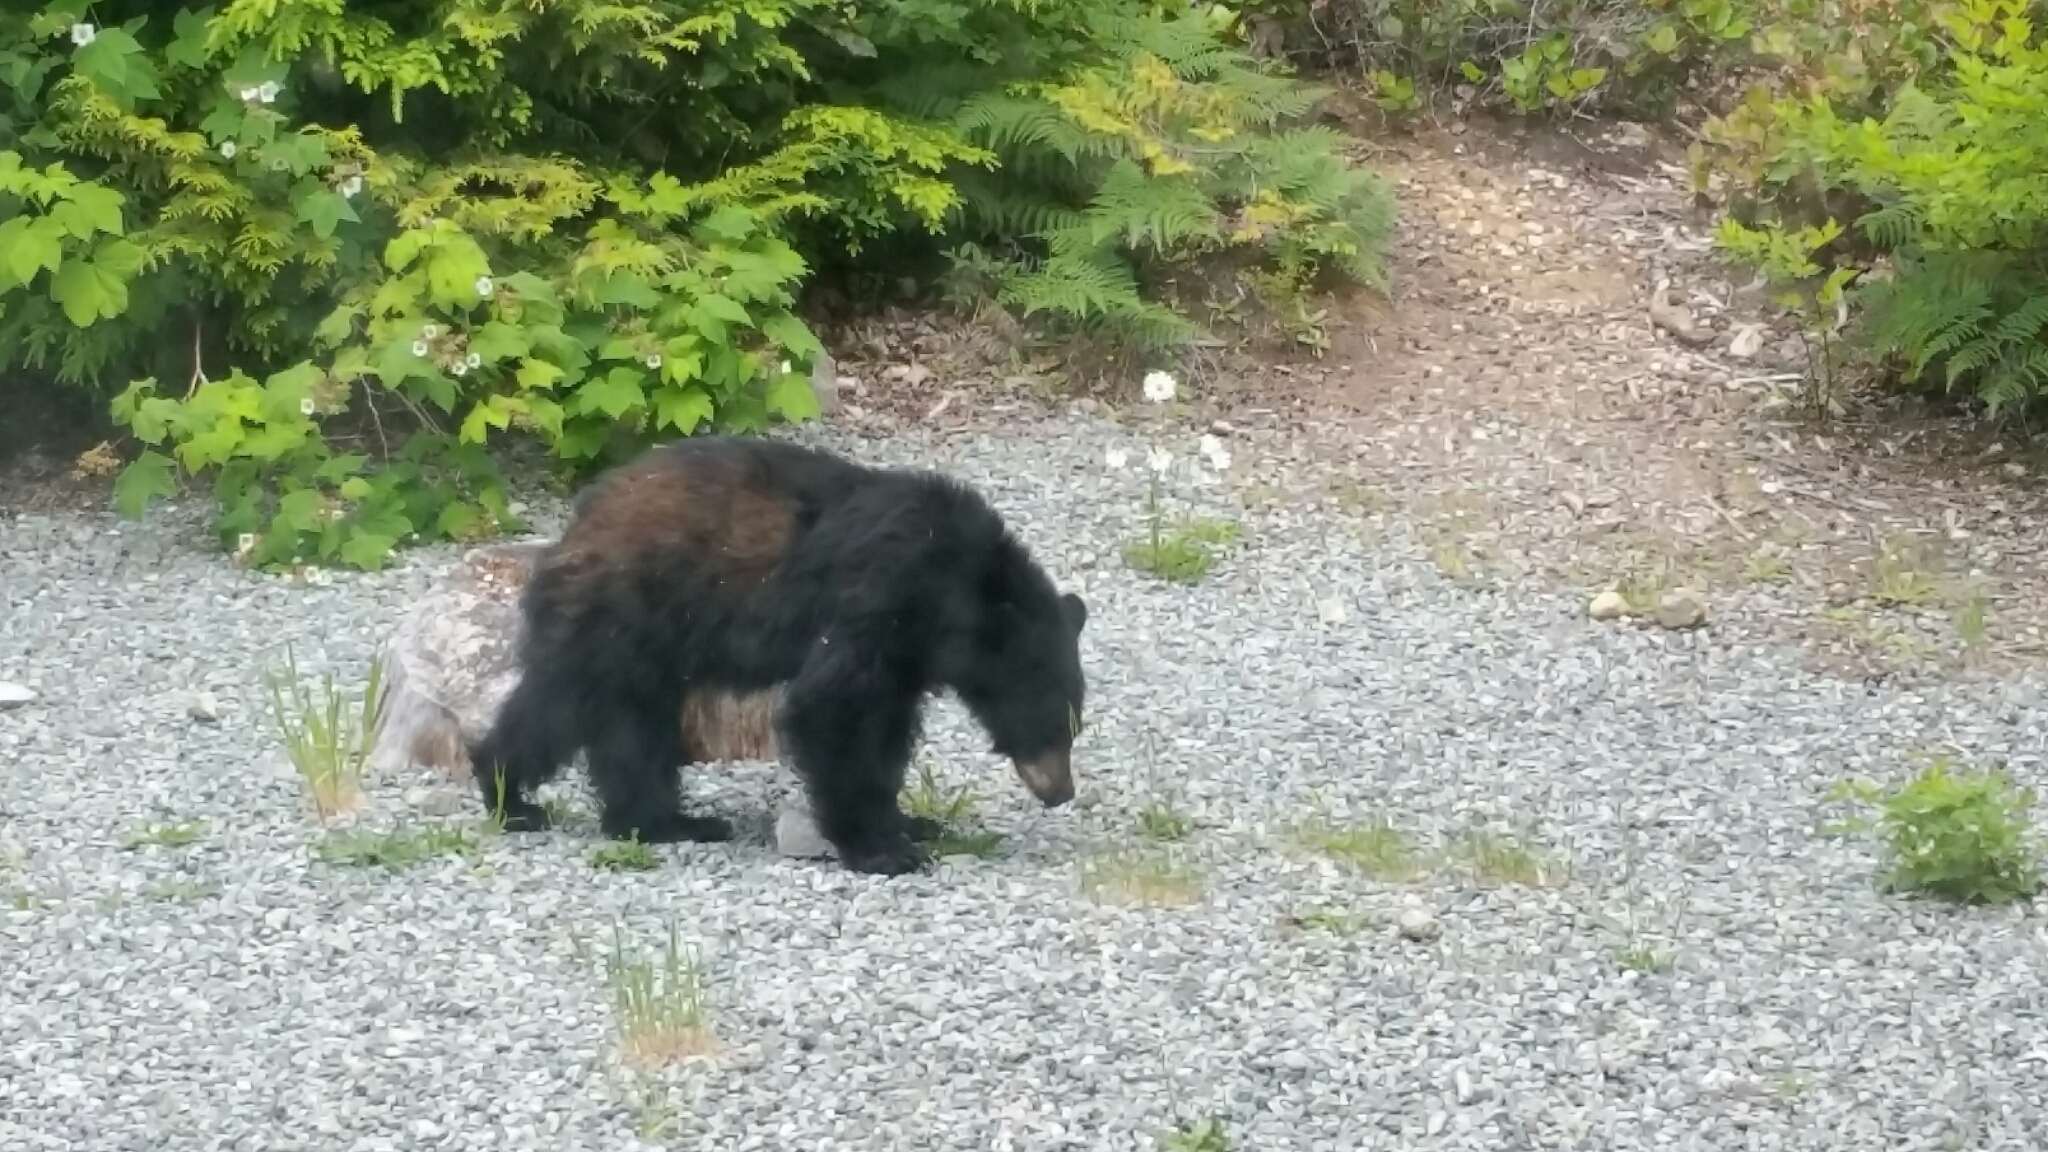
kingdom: Animalia
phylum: Chordata
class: Mammalia
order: Carnivora
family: Ursidae
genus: Ursus
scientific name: Ursus americanus
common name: American black bear
